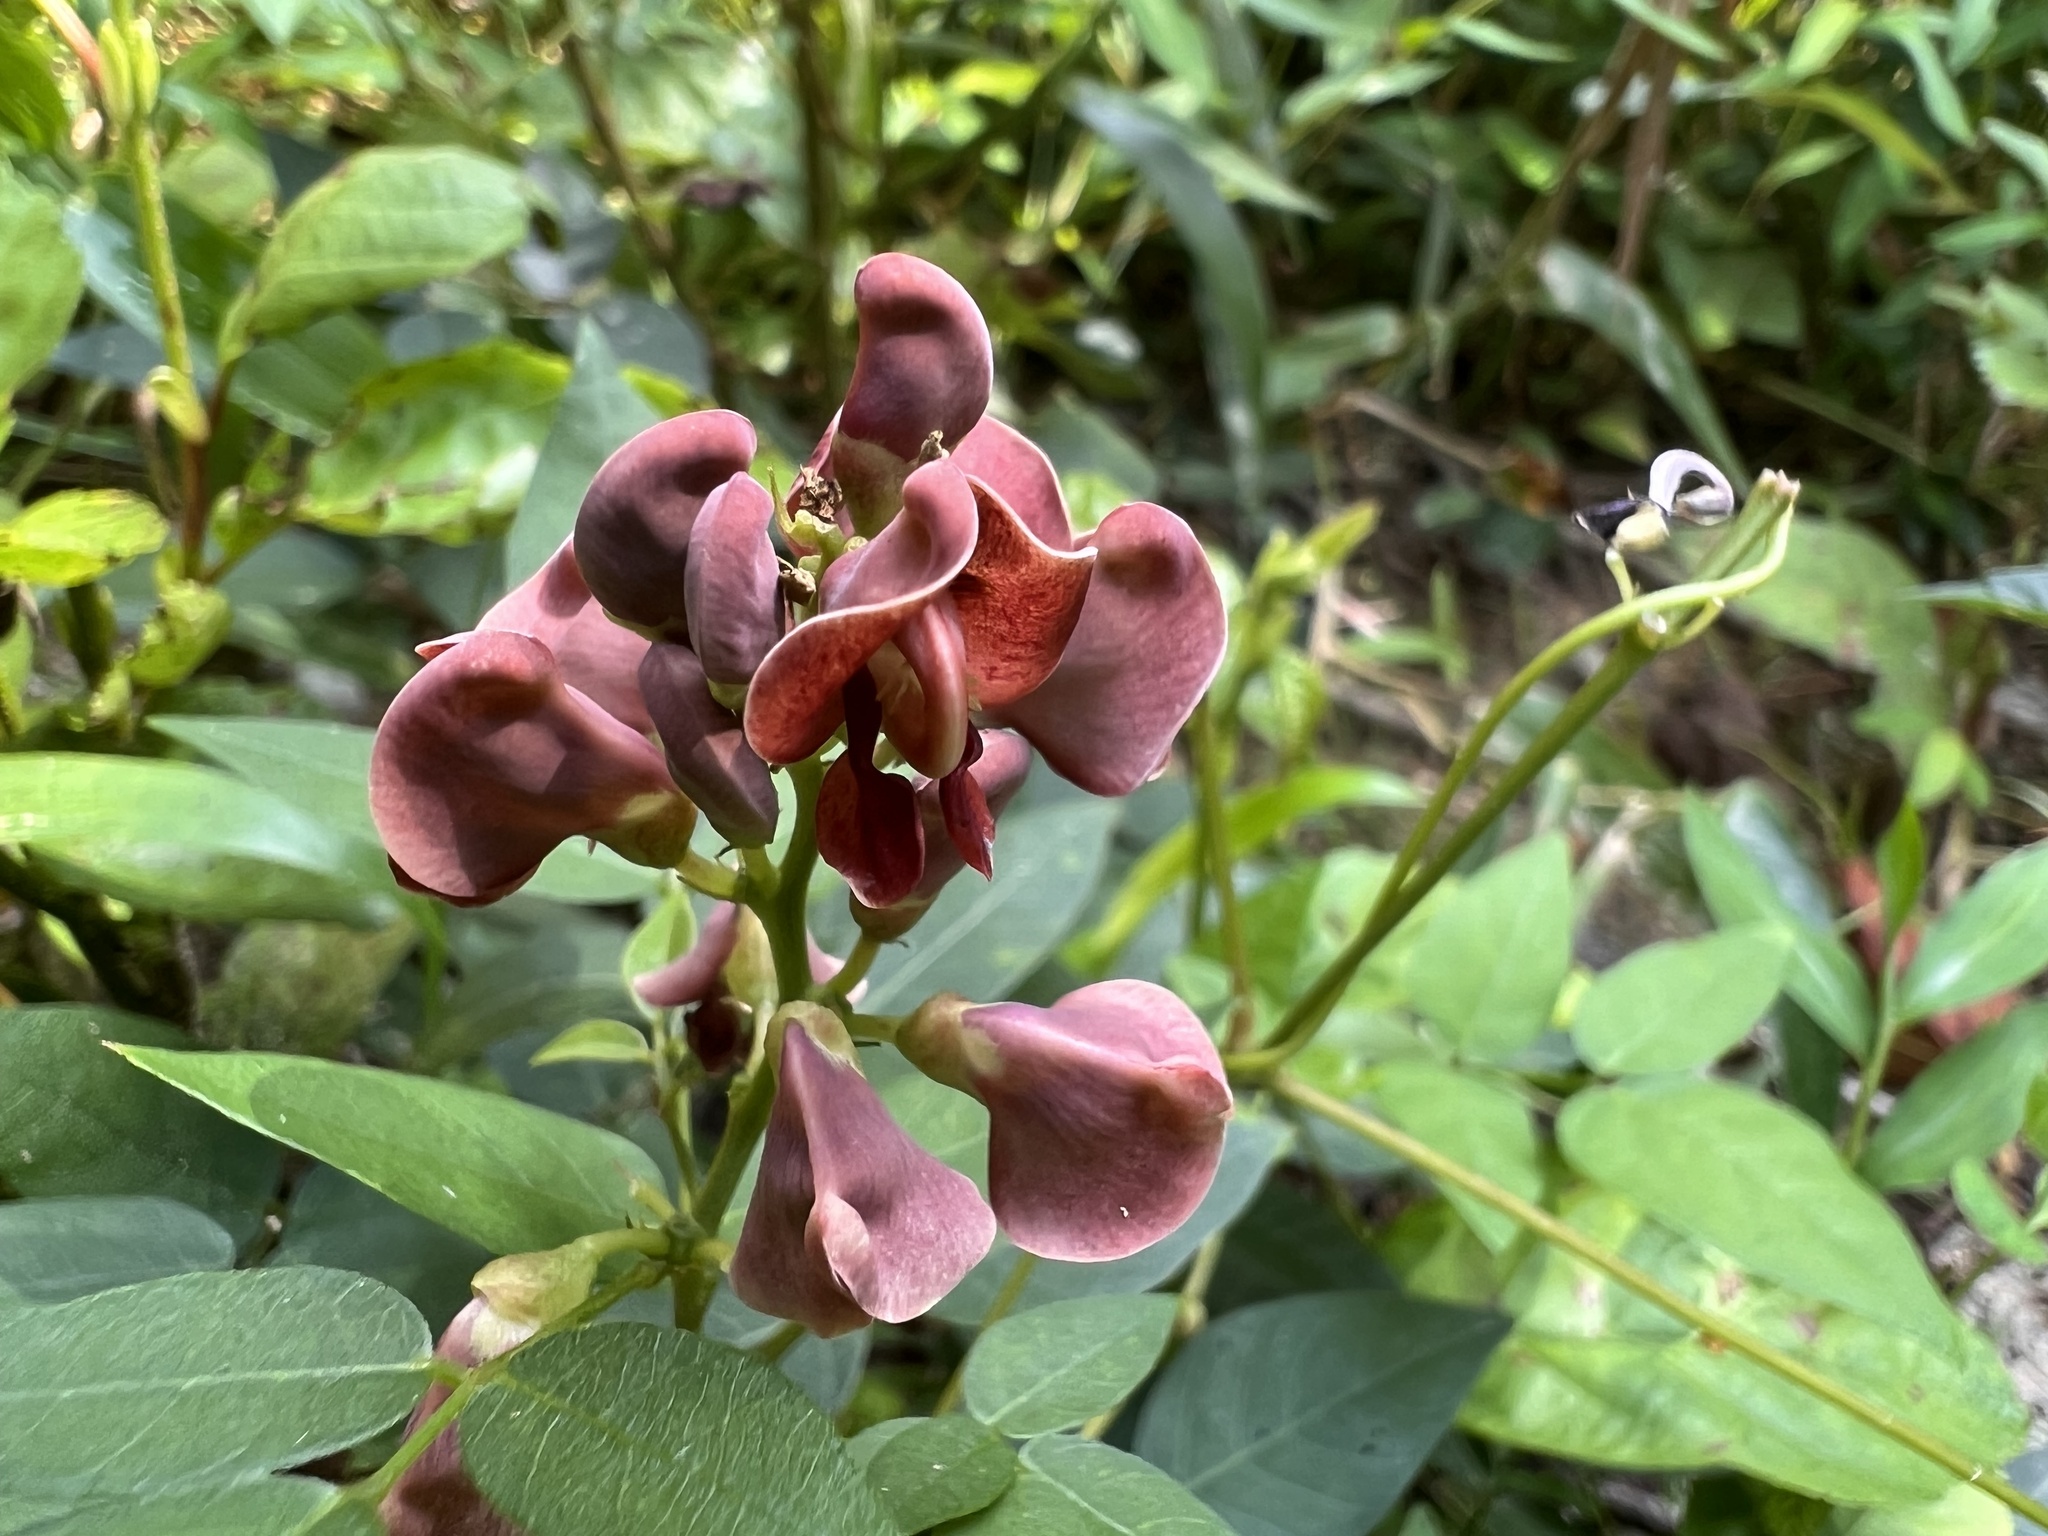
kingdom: Plantae
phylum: Tracheophyta
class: Magnoliopsida
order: Fabales
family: Fabaceae
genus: Apios
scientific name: Apios americana
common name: American potato-bean
